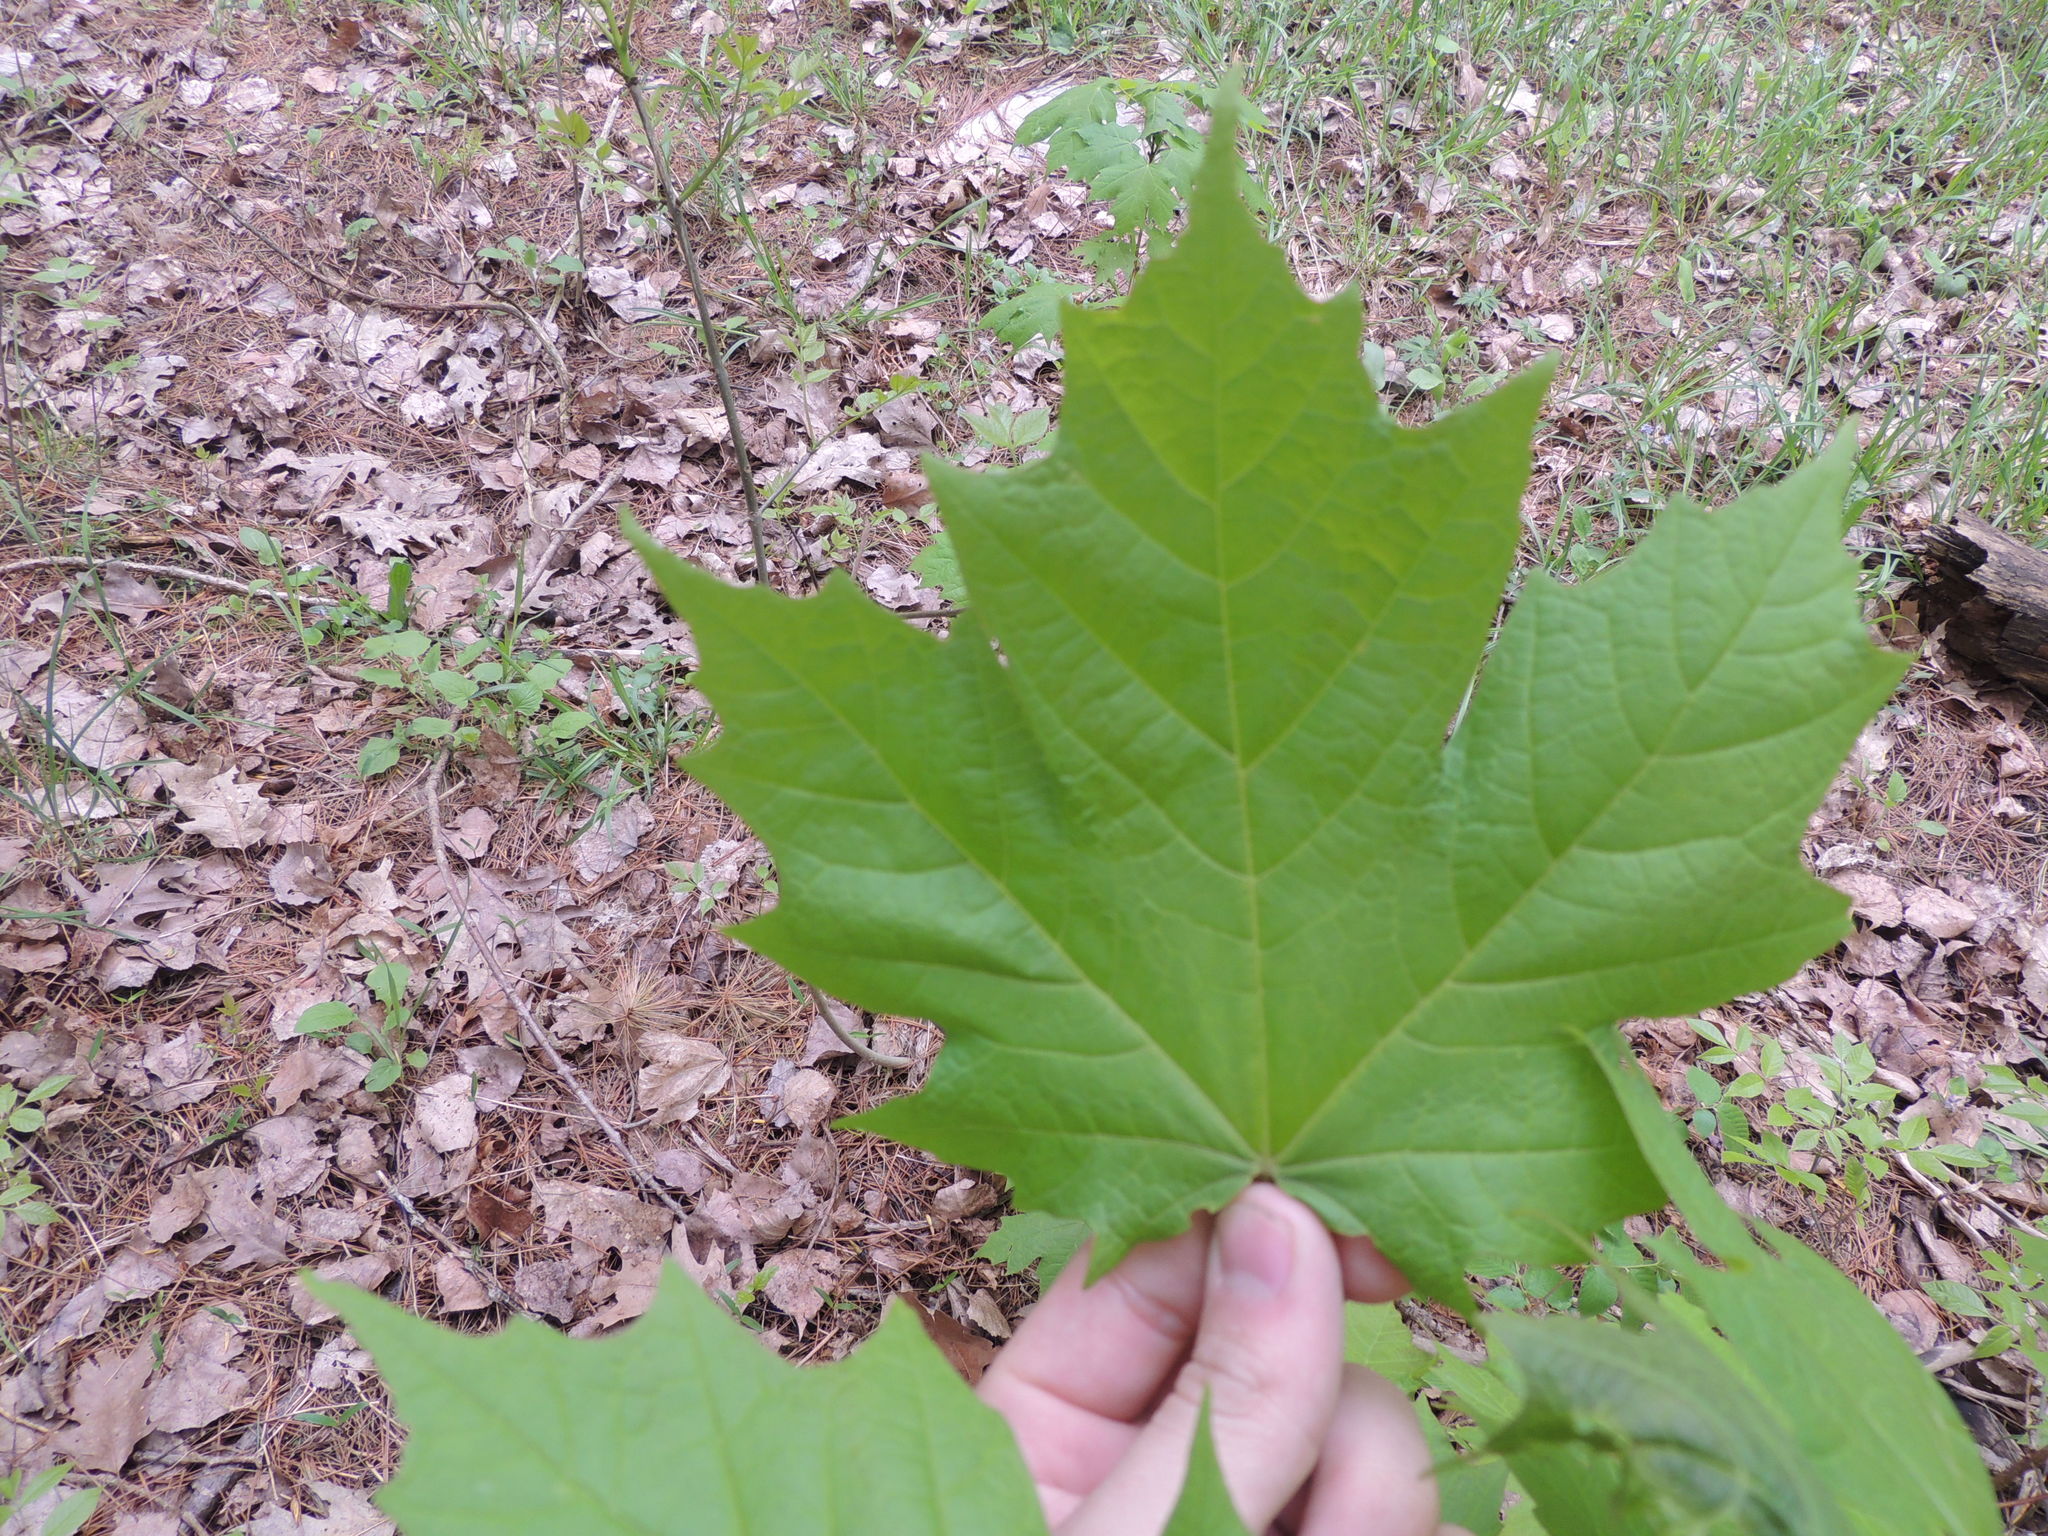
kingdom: Plantae
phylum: Tracheophyta
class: Magnoliopsida
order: Sapindales
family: Sapindaceae
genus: Acer
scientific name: Acer saccharum
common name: Sugar maple
